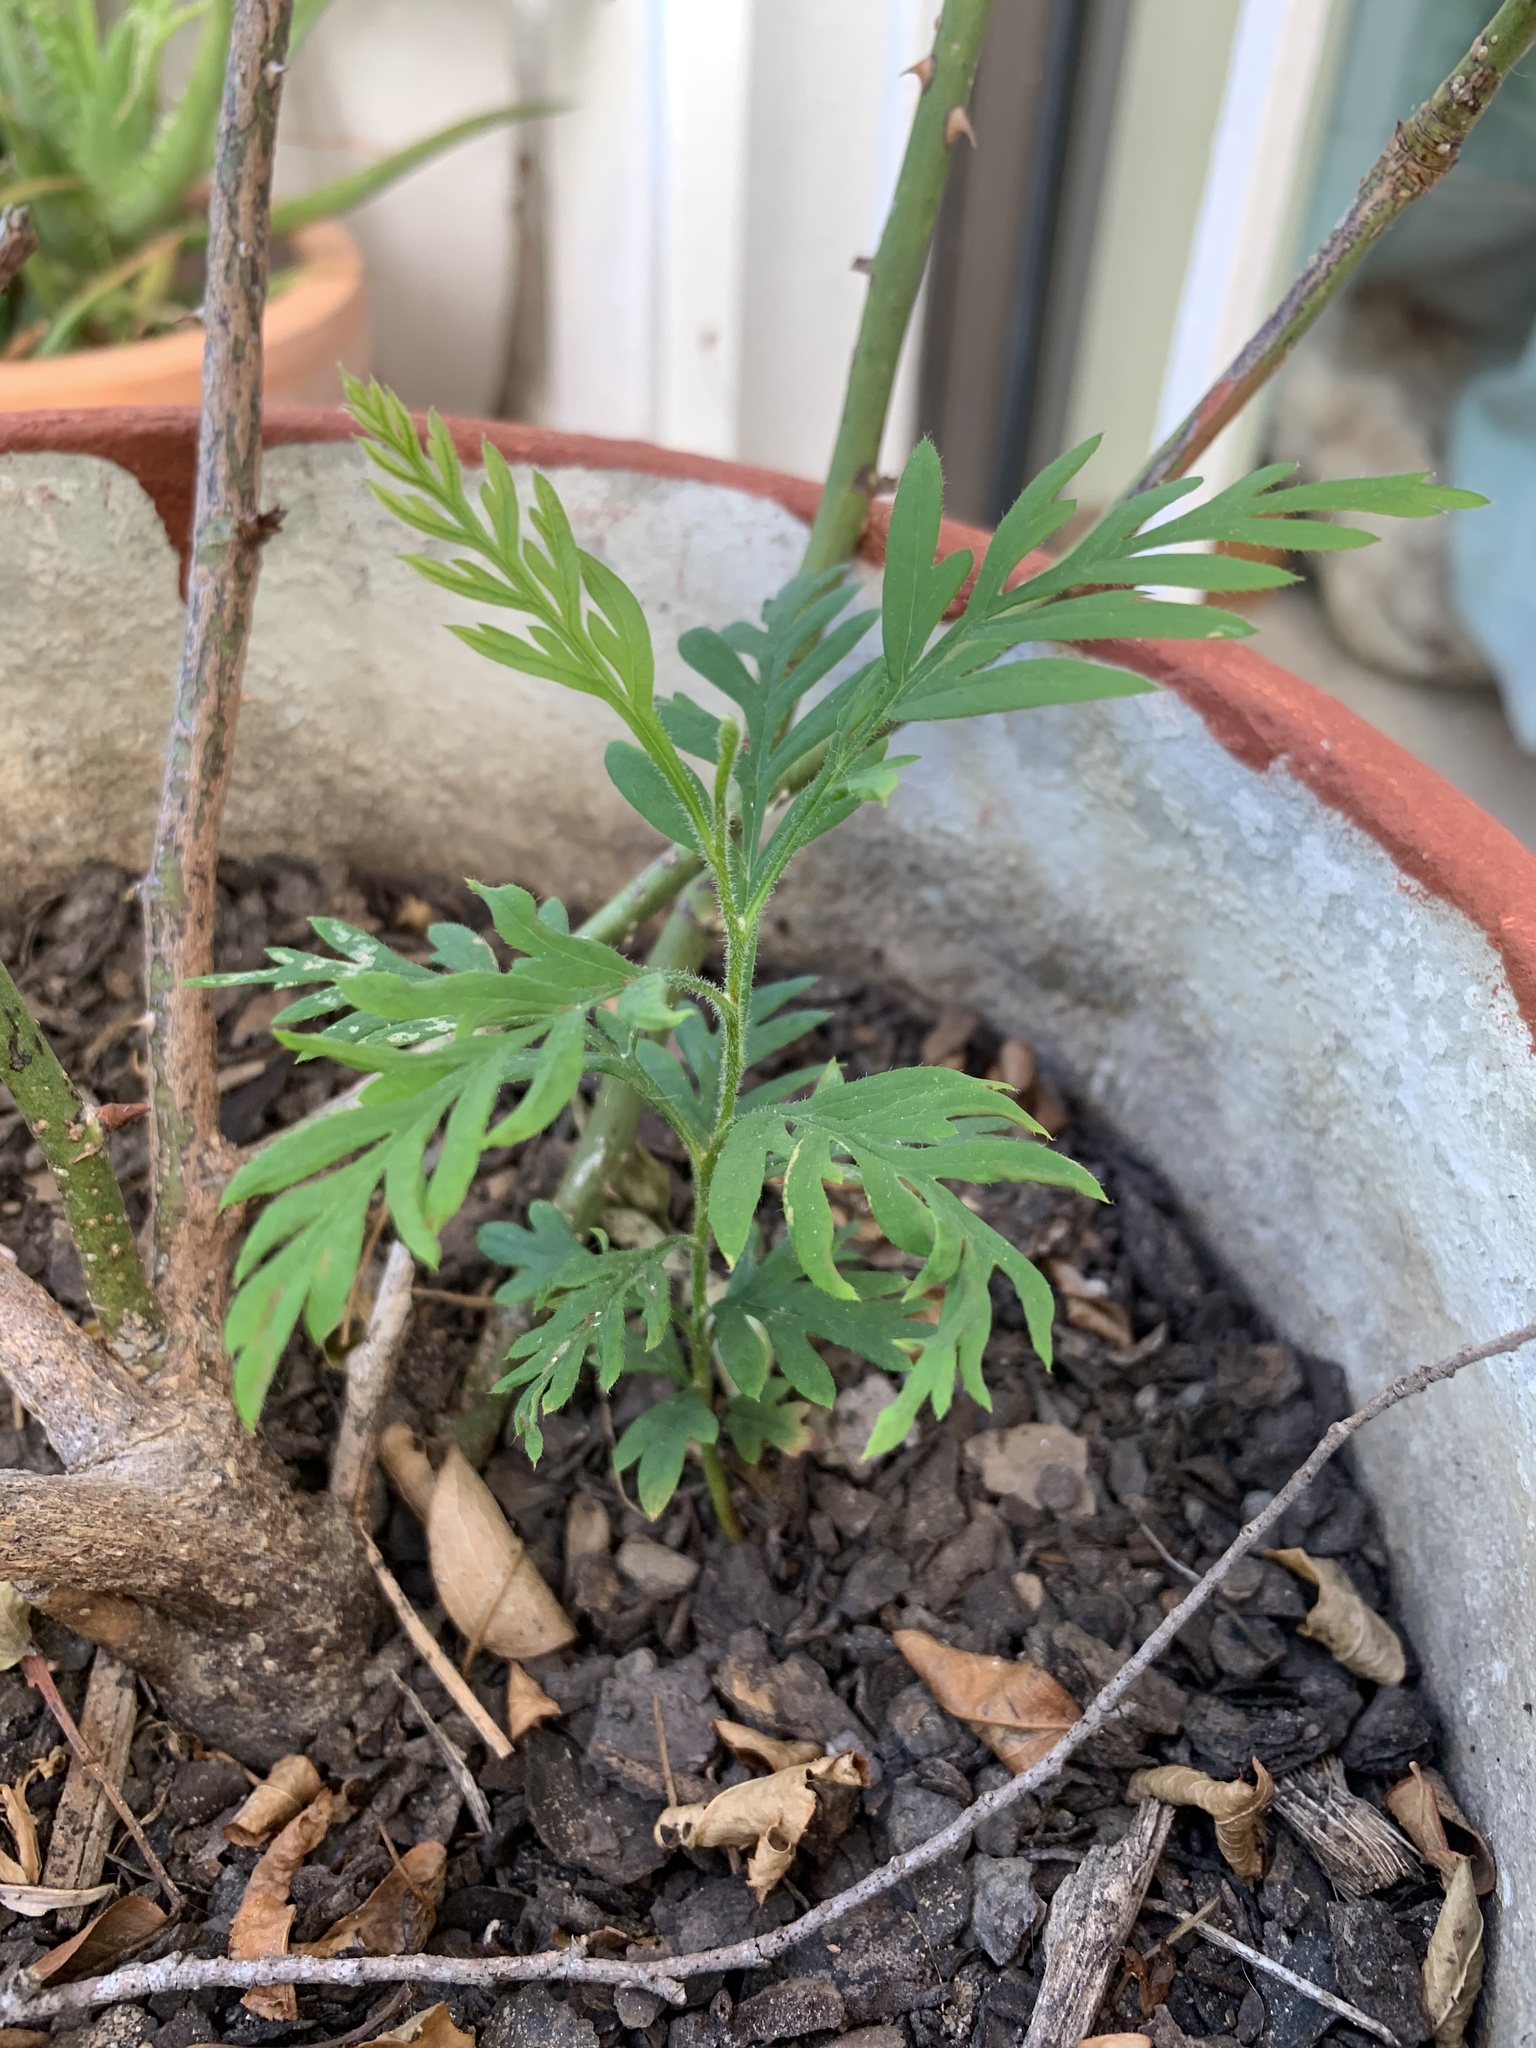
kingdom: Plantae
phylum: Tracheophyta
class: Magnoliopsida
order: Proteales
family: Proteaceae
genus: Grevillea
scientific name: Grevillea robusta
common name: Silkoak
